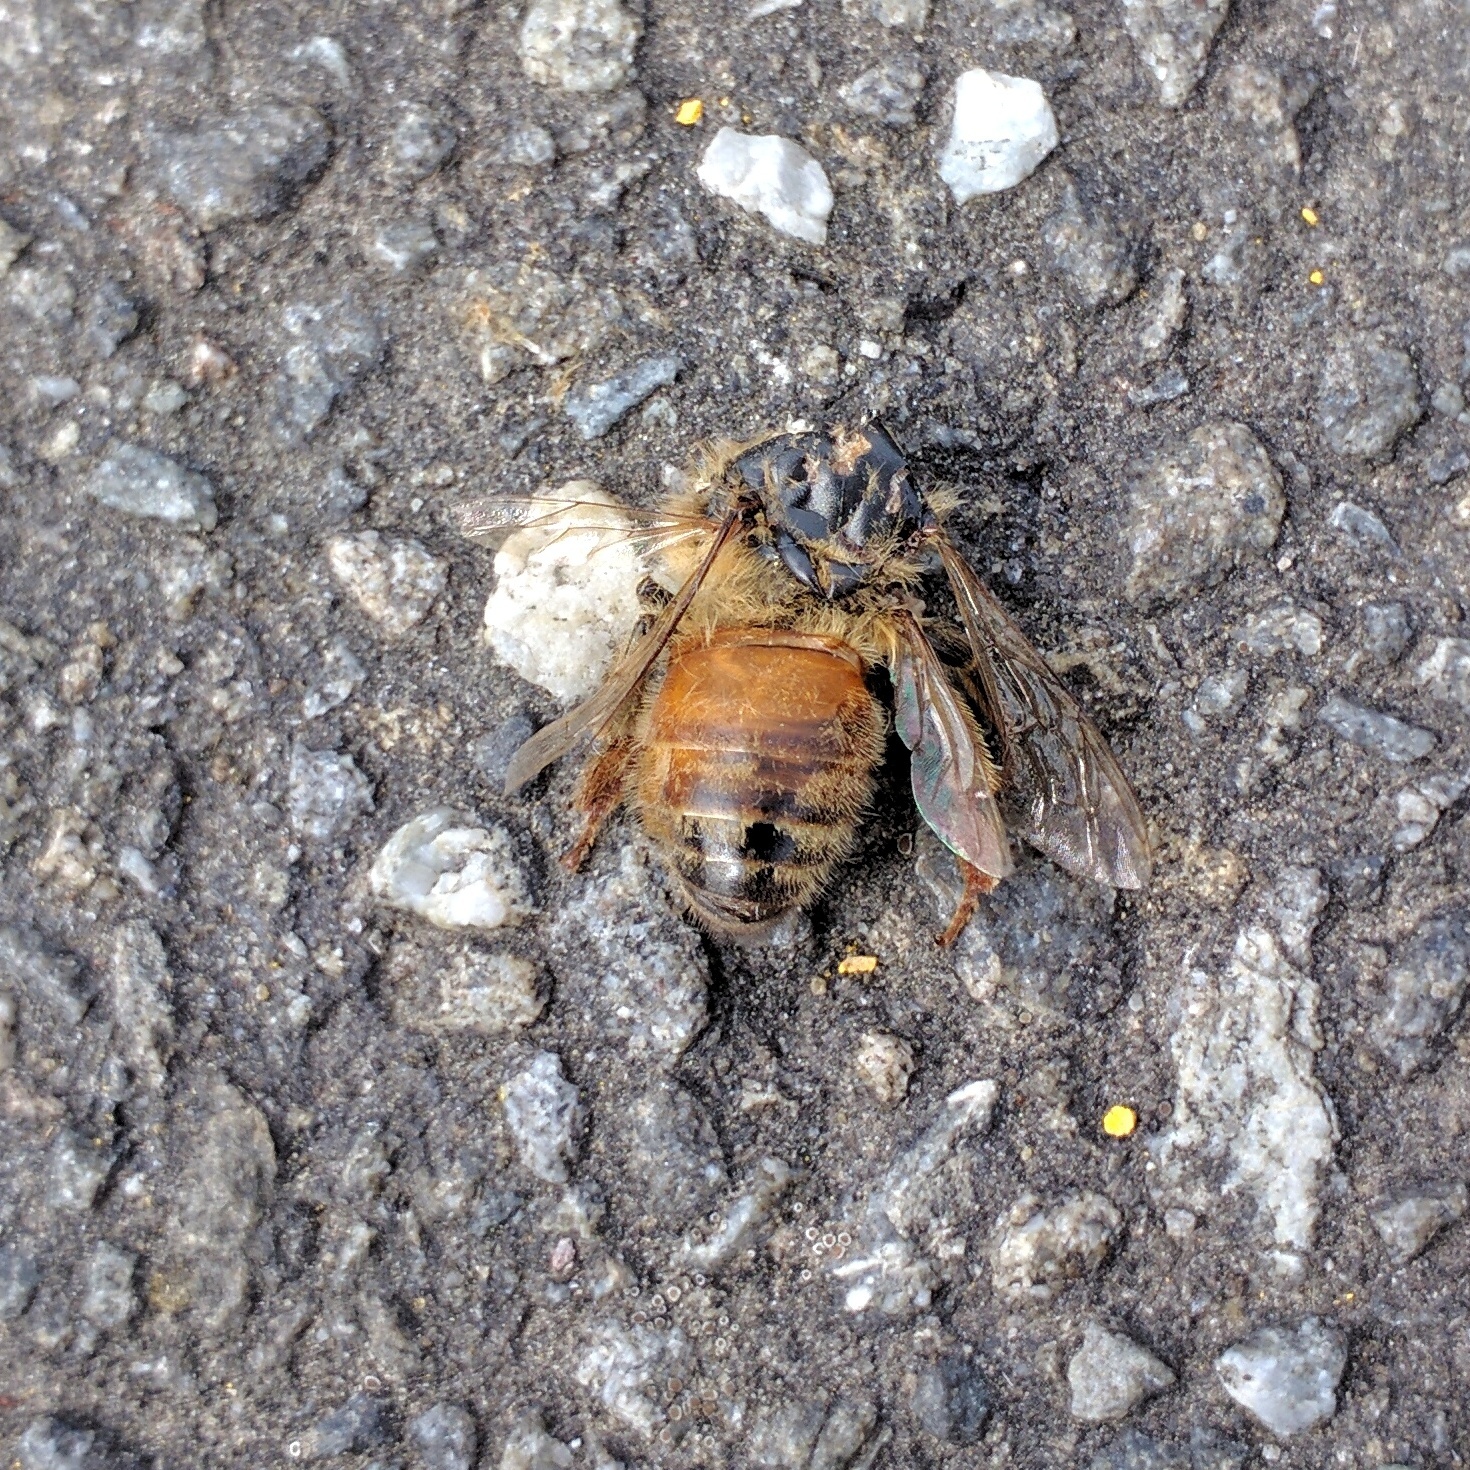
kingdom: Animalia
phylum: Arthropoda
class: Insecta
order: Hymenoptera
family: Apidae
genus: Apis
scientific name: Apis mellifera
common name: Honey bee
